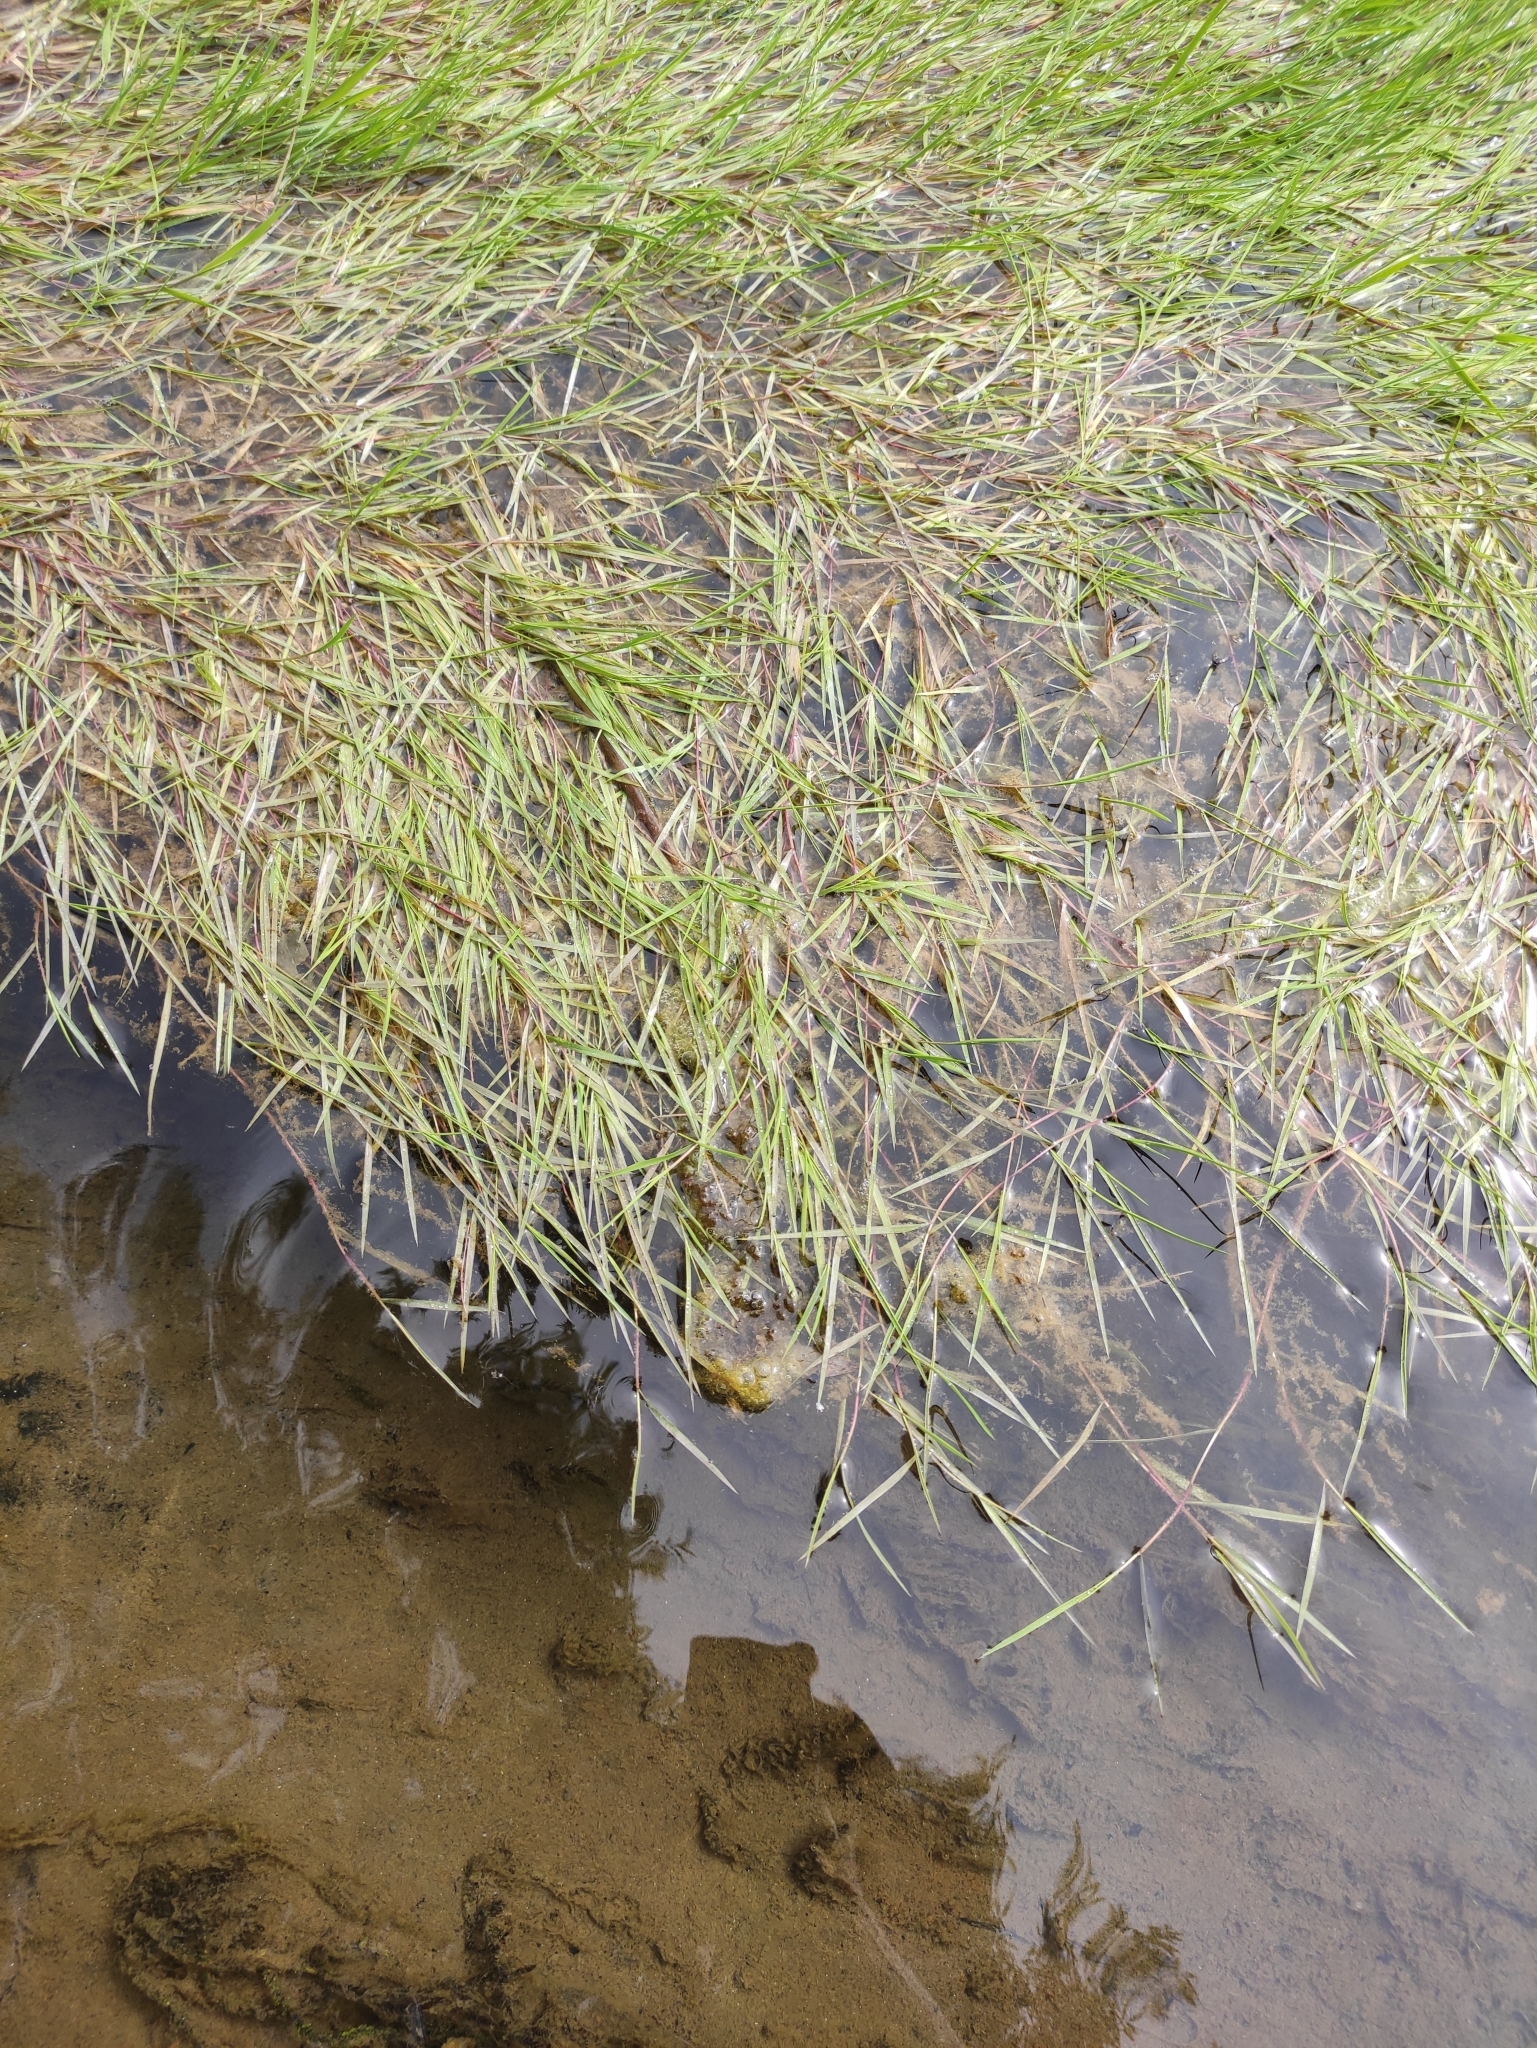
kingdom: Plantae
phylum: Tracheophyta
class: Liliopsida
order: Poales
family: Poaceae
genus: Agrostis
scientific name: Agrostis stolonifera
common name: Creeping bentgrass
